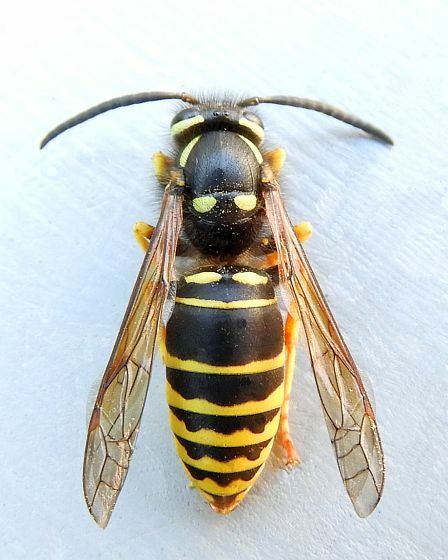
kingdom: Animalia
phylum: Arthropoda
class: Insecta
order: Hymenoptera
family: Vespidae
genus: Vespula
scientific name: Vespula vidua
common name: Widow yellowjacket
